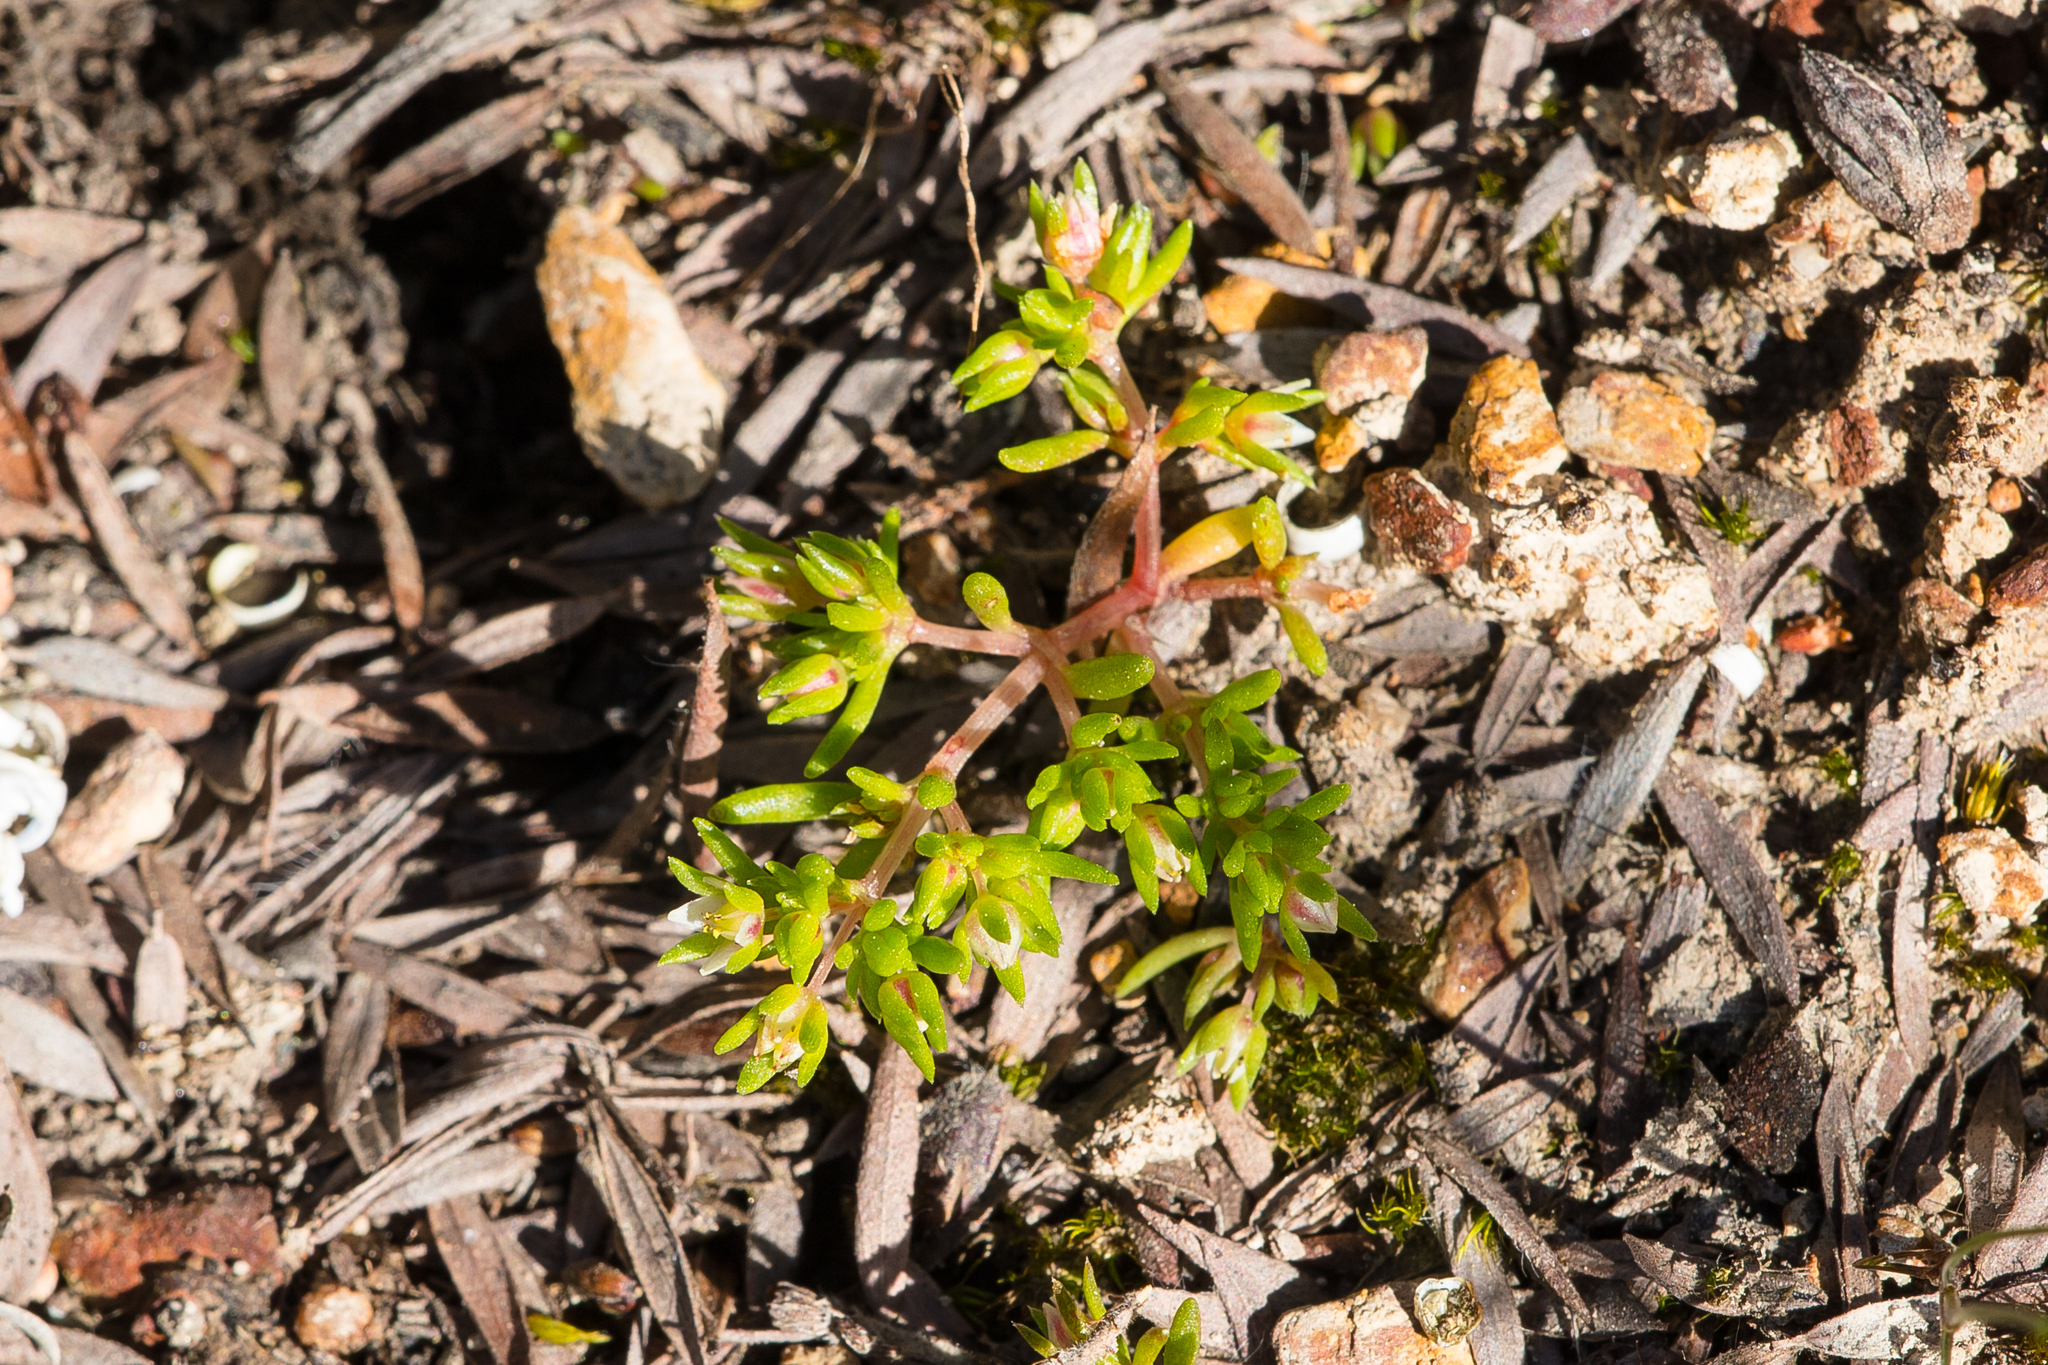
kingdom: Plantae
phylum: Tracheophyta
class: Magnoliopsida
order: Saxifragales
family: Crassulaceae
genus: Crassula
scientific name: Crassula decumbens
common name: Scilly pigmyweed
